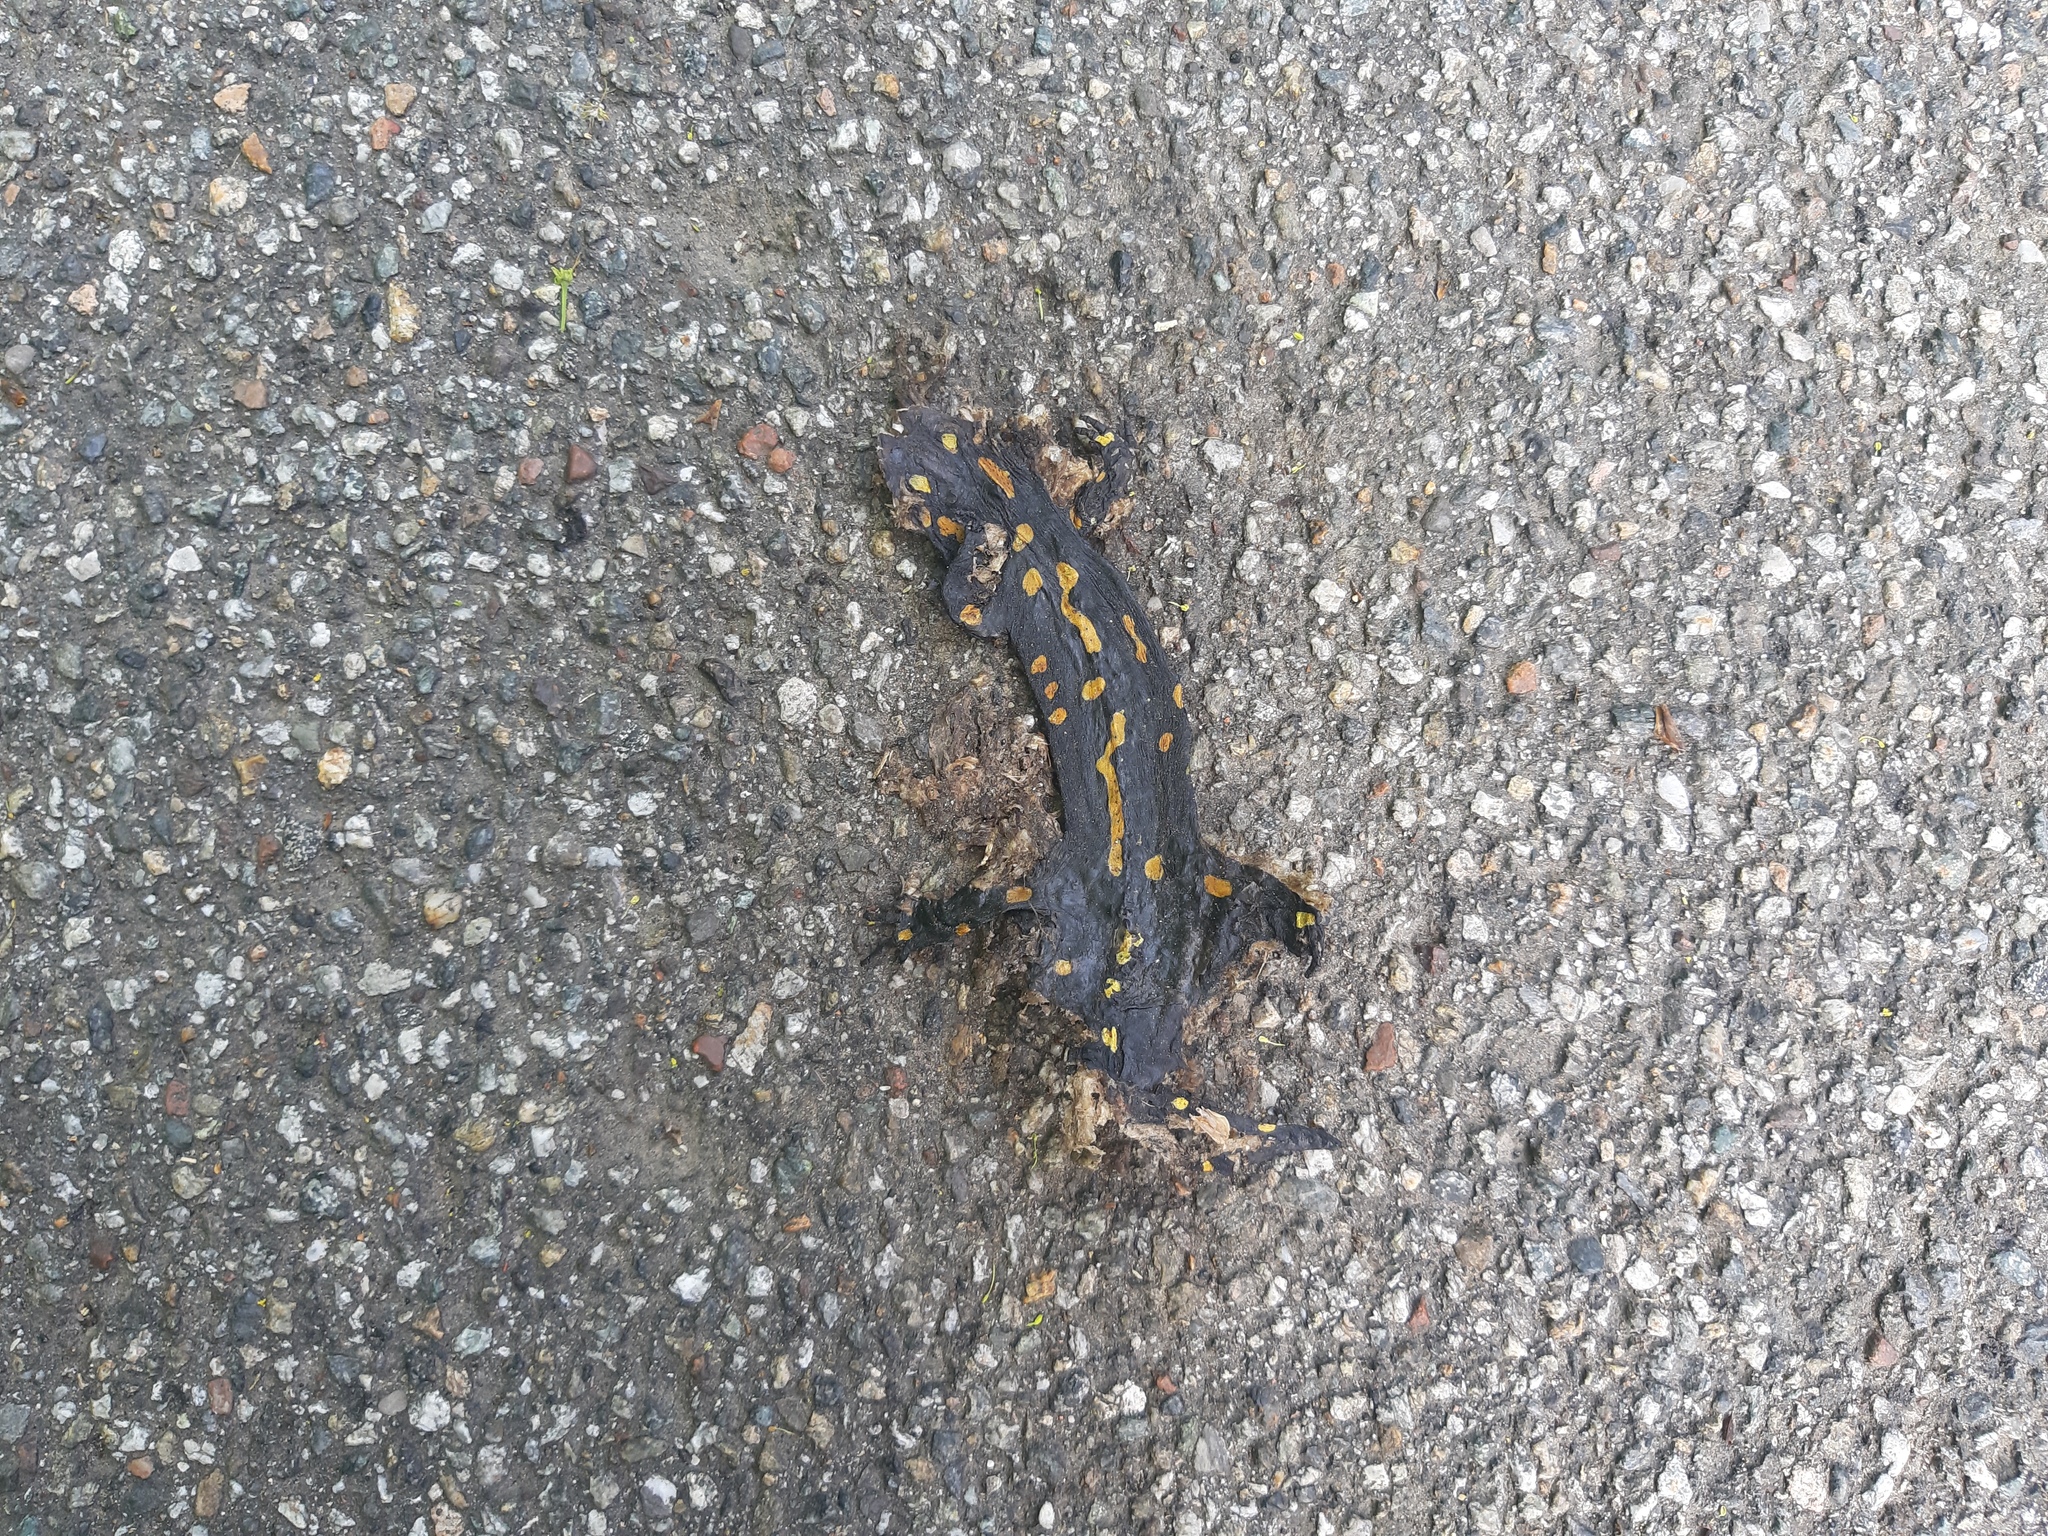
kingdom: Animalia
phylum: Chordata
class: Amphibia
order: Caudata
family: Salamandridae
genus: Salamandra
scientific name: Salamandra salamandra
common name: Fire salamander
